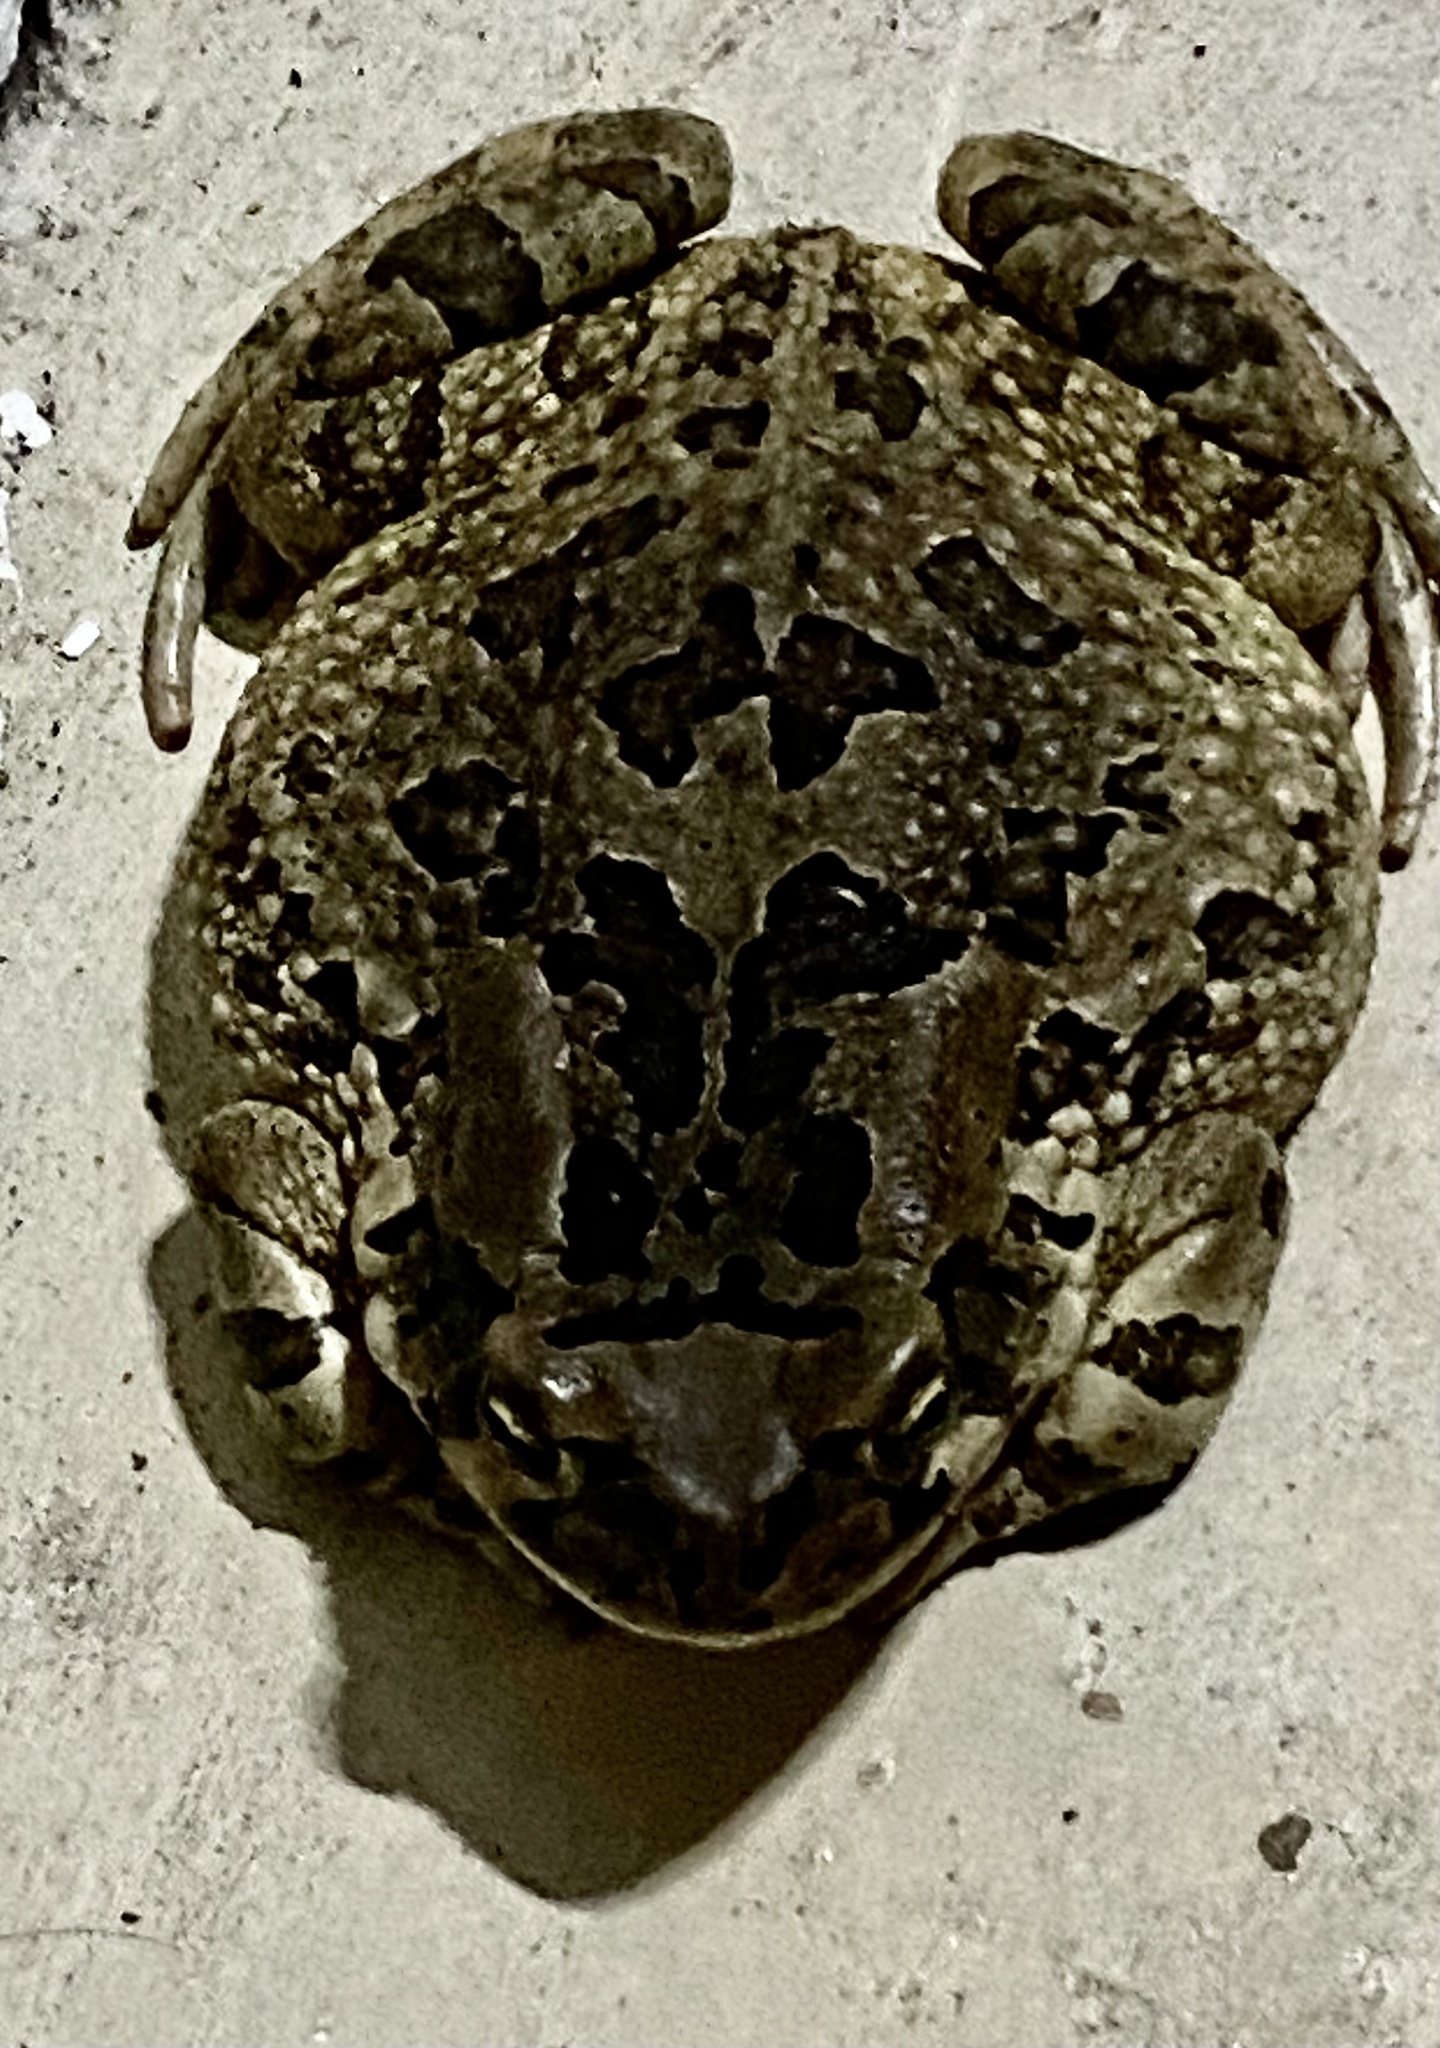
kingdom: Animalia
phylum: Chordata
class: Amphibia
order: Anura
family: Bufonidae
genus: Sclerophrys
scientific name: Sclerophrys capensis
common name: Ranger’s toad
